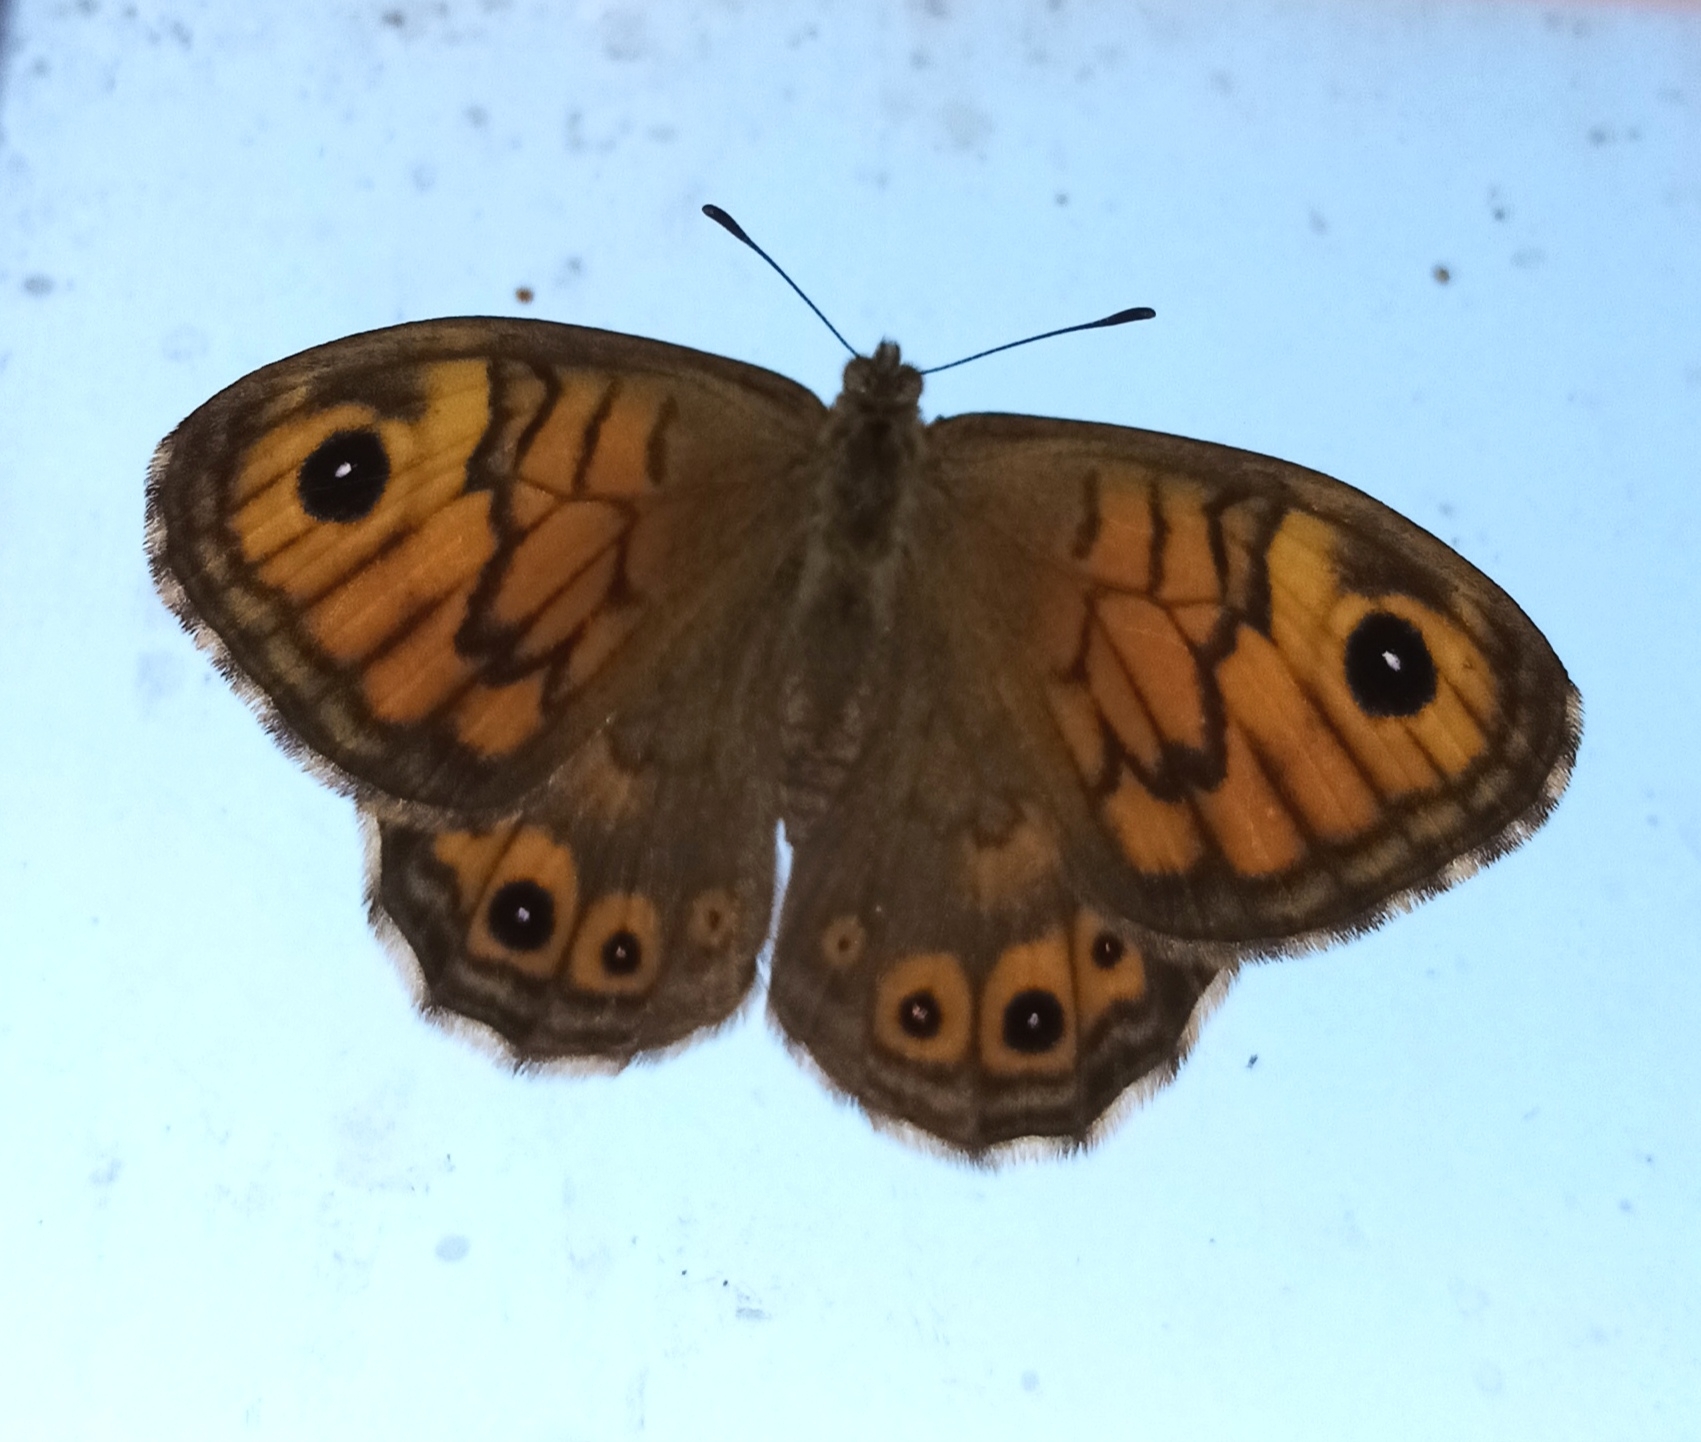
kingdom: Animalia
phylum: Arthropoda
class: Insecta
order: Lepidoptera
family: Nymphalidae
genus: Pararge
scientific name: Pararge Lasiommata megera
